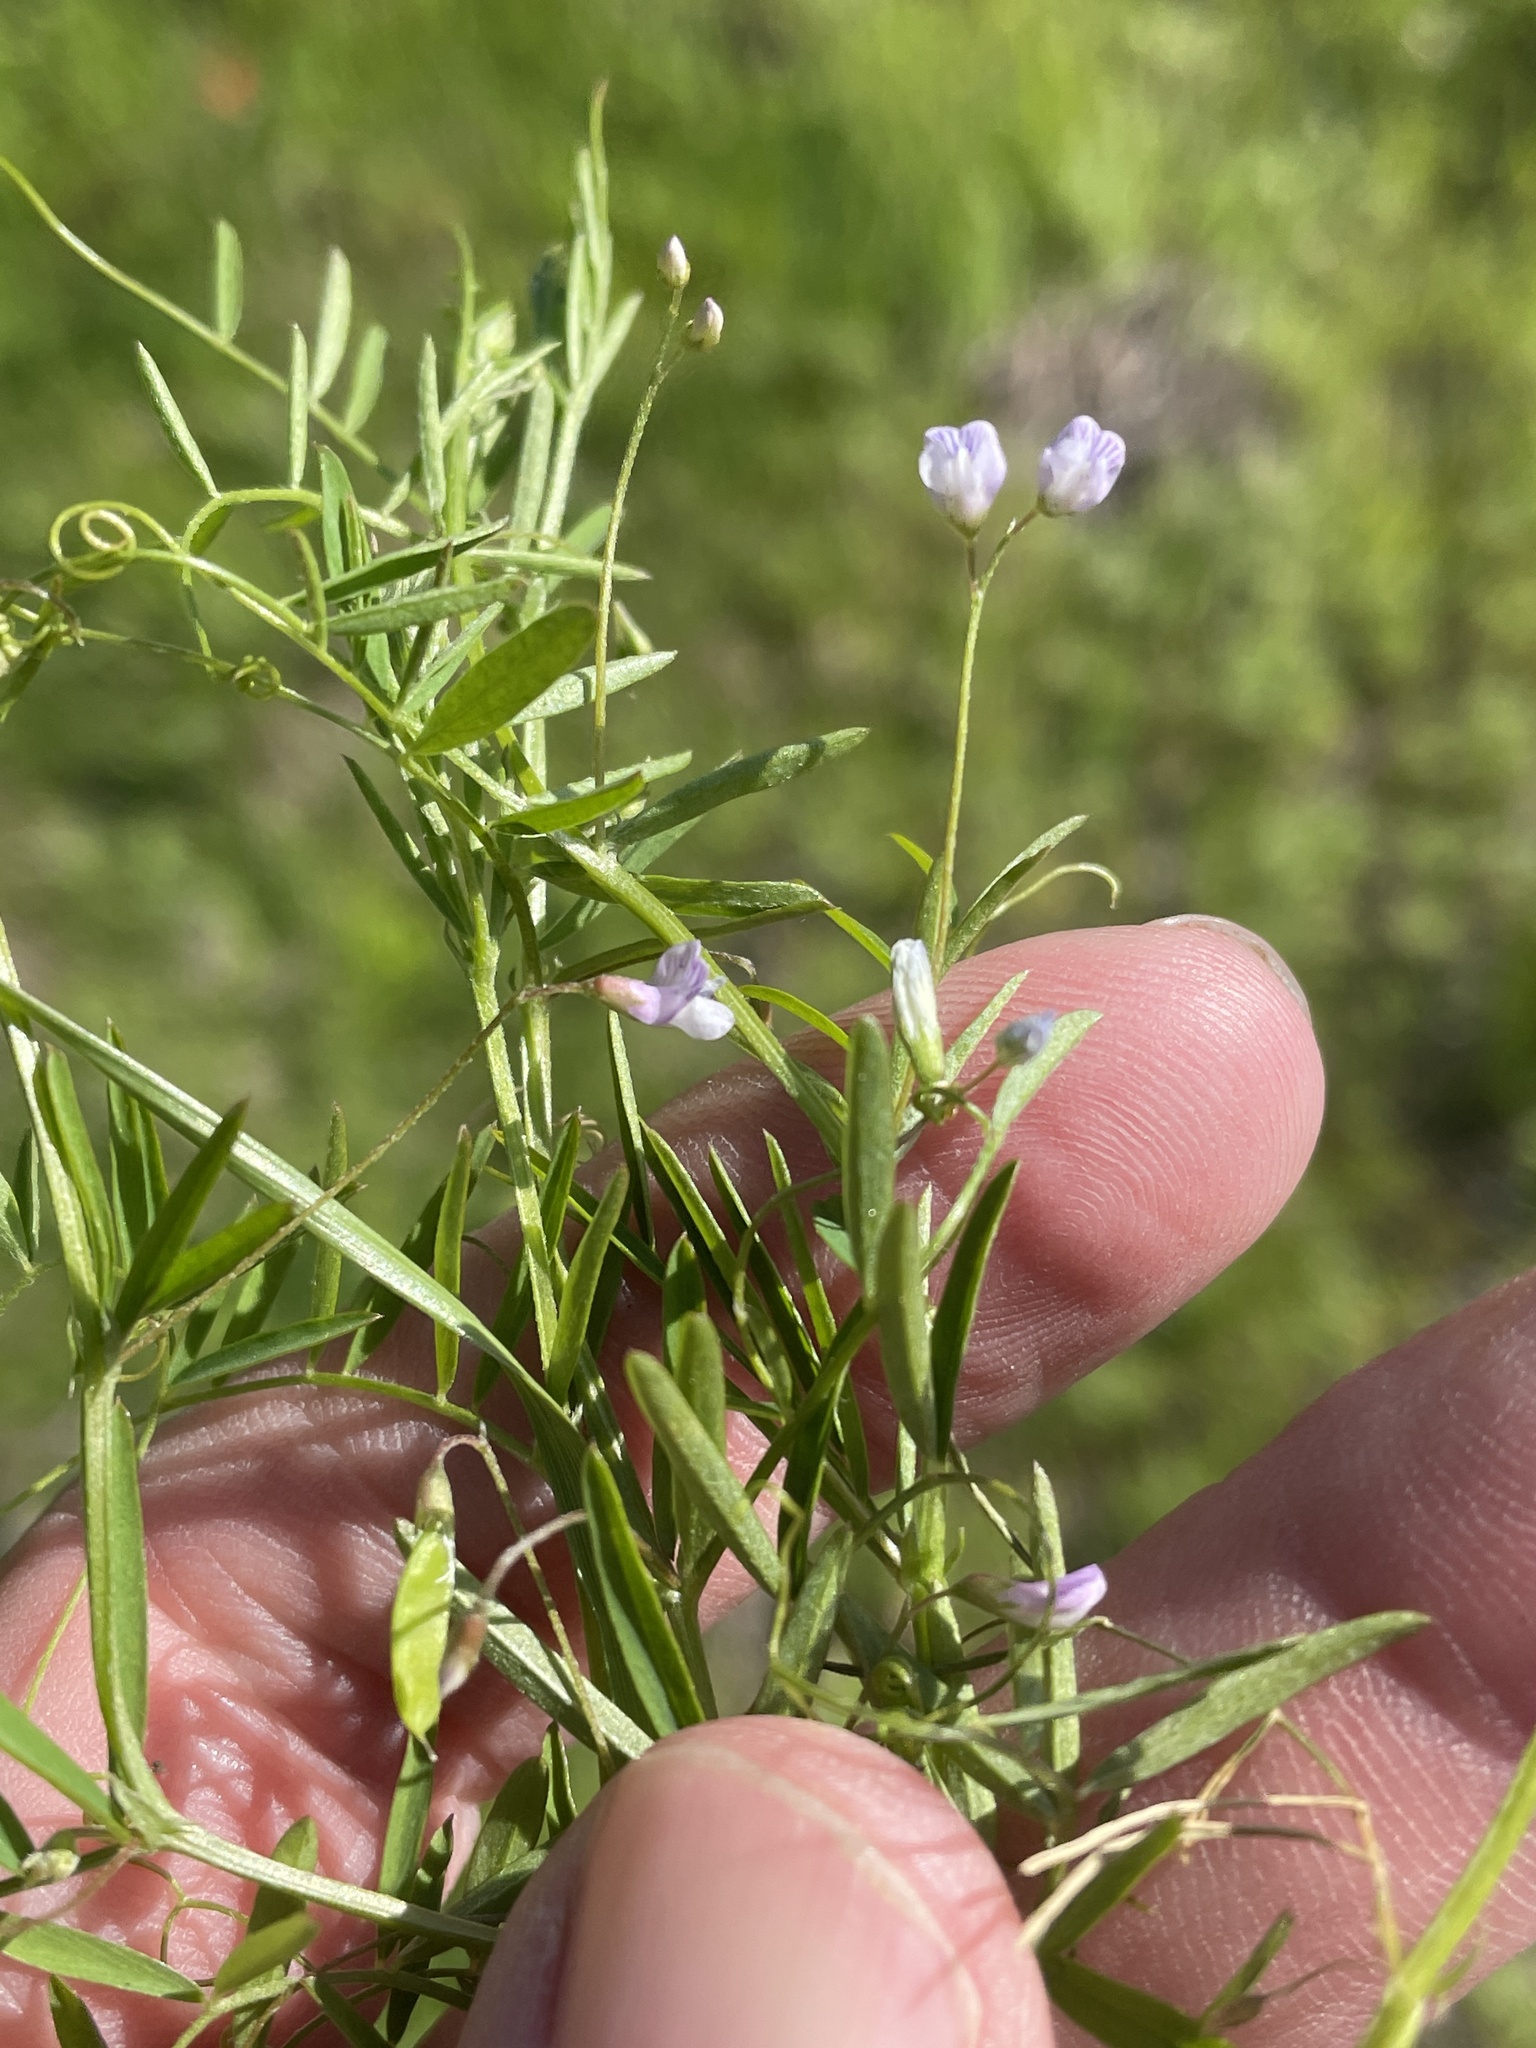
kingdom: Plantae
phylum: Tracheophyta
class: Magnoliopsida
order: Fabales
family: Fabaceae
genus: Vicia
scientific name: Vicia tetrasperma
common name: Smooth tare
